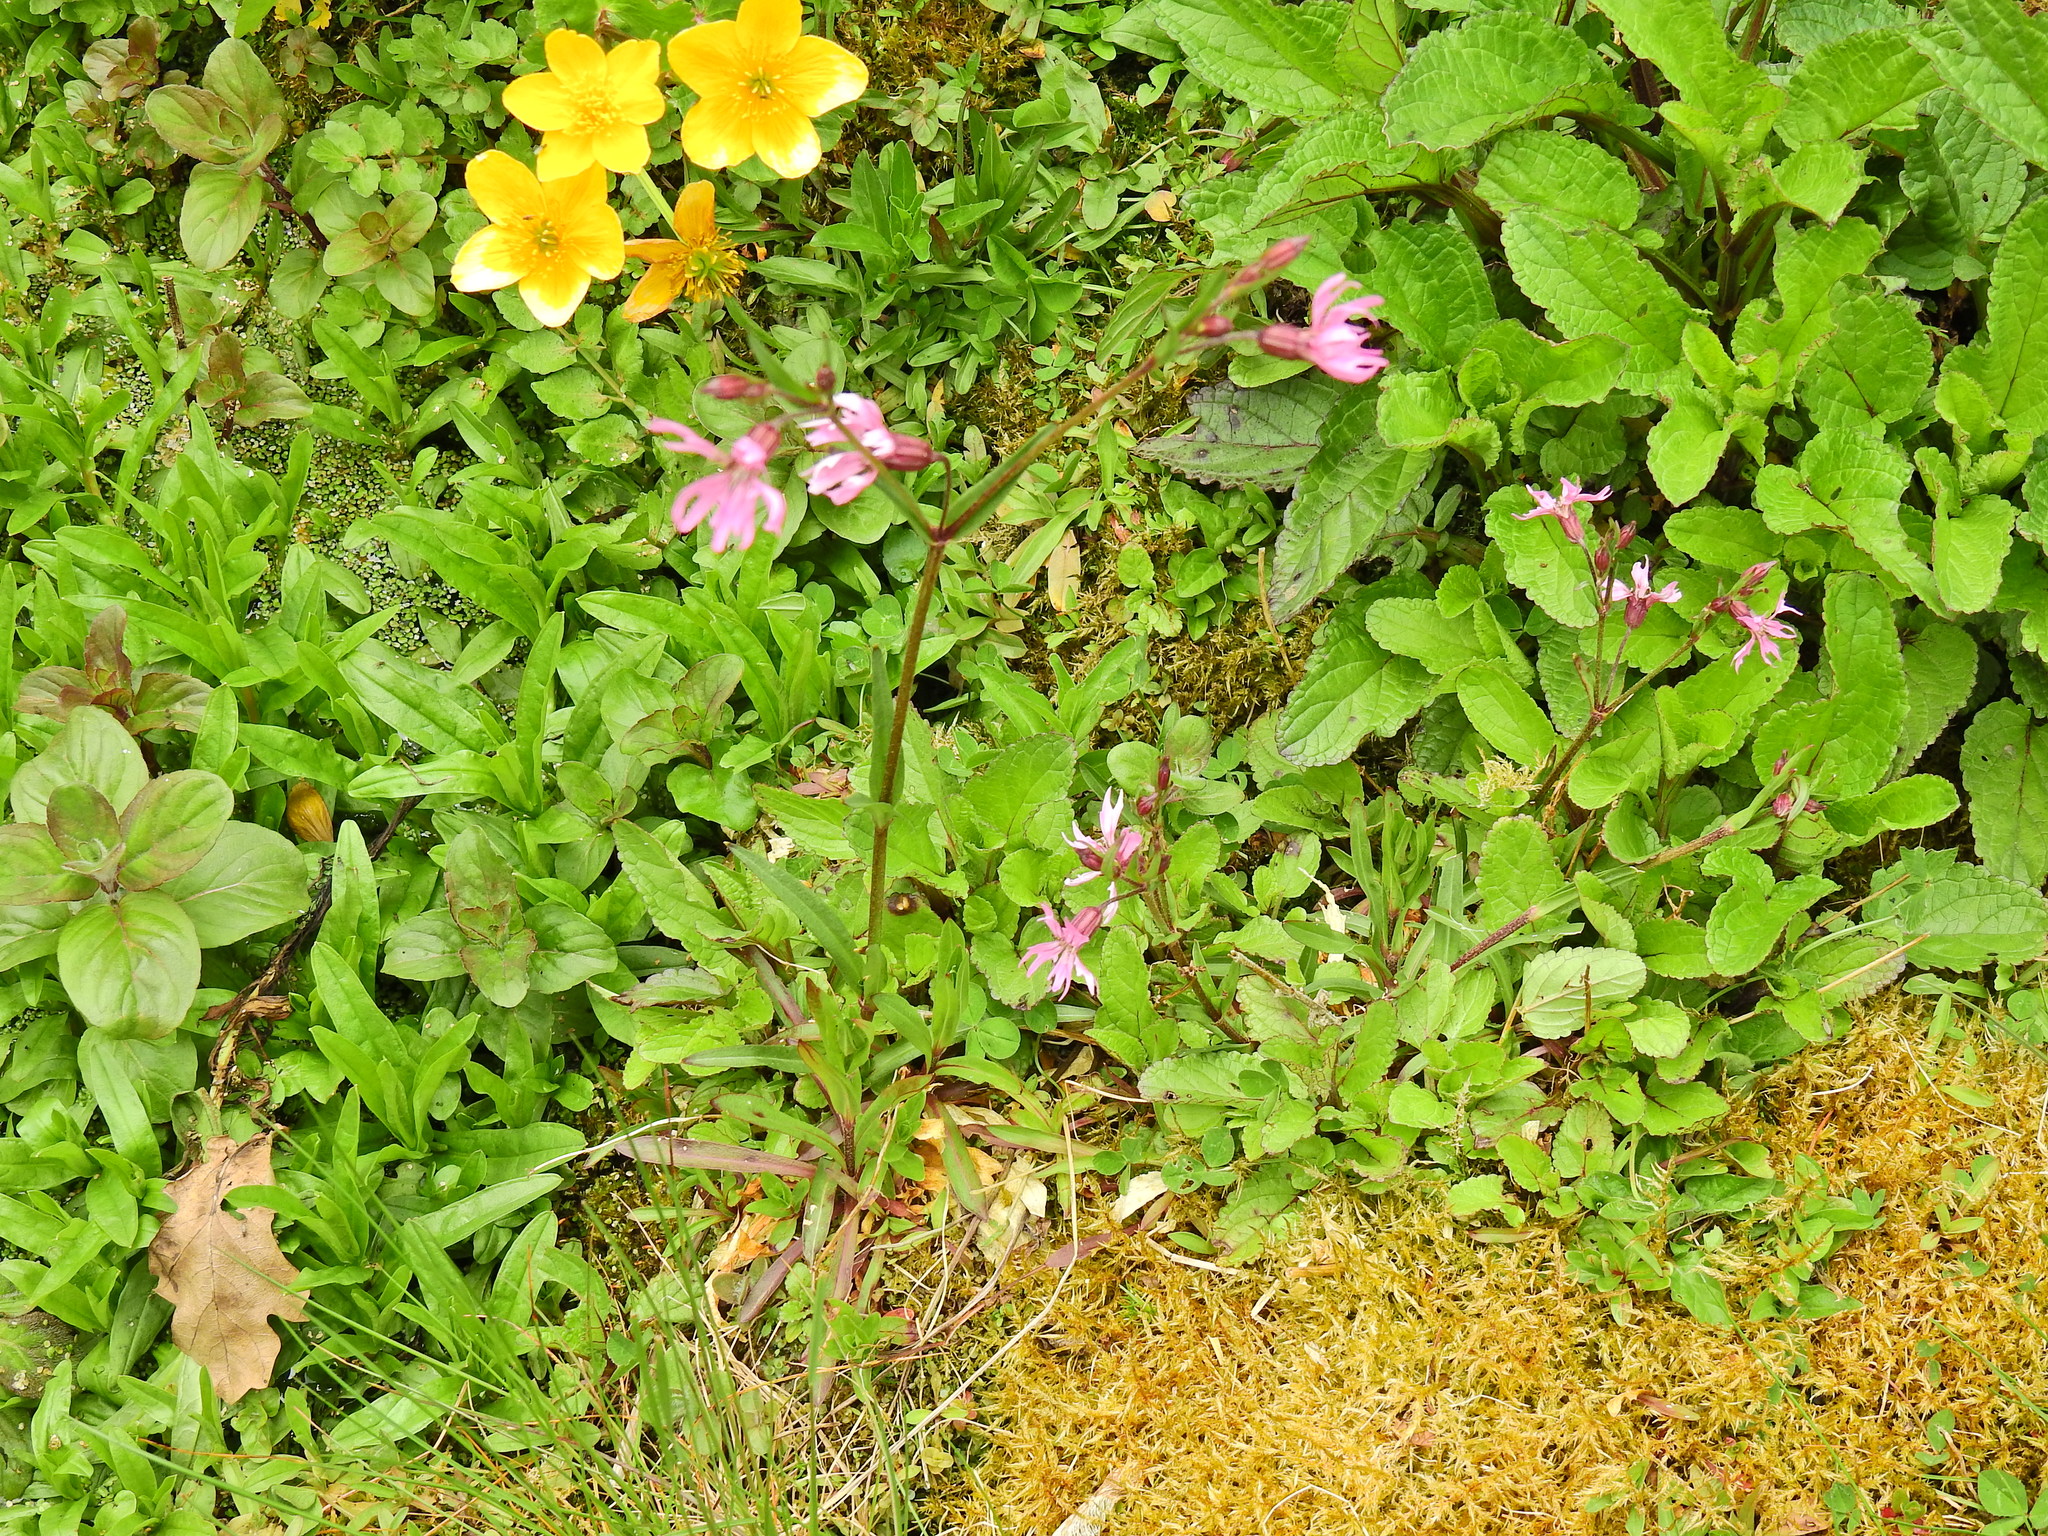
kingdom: Plantae
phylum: Tracheophyta
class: Magnoliopsida
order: Caryophyllales
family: Caryophyllaceae
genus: Silene
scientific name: Silene flos-cuculi
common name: Ragged-robin
